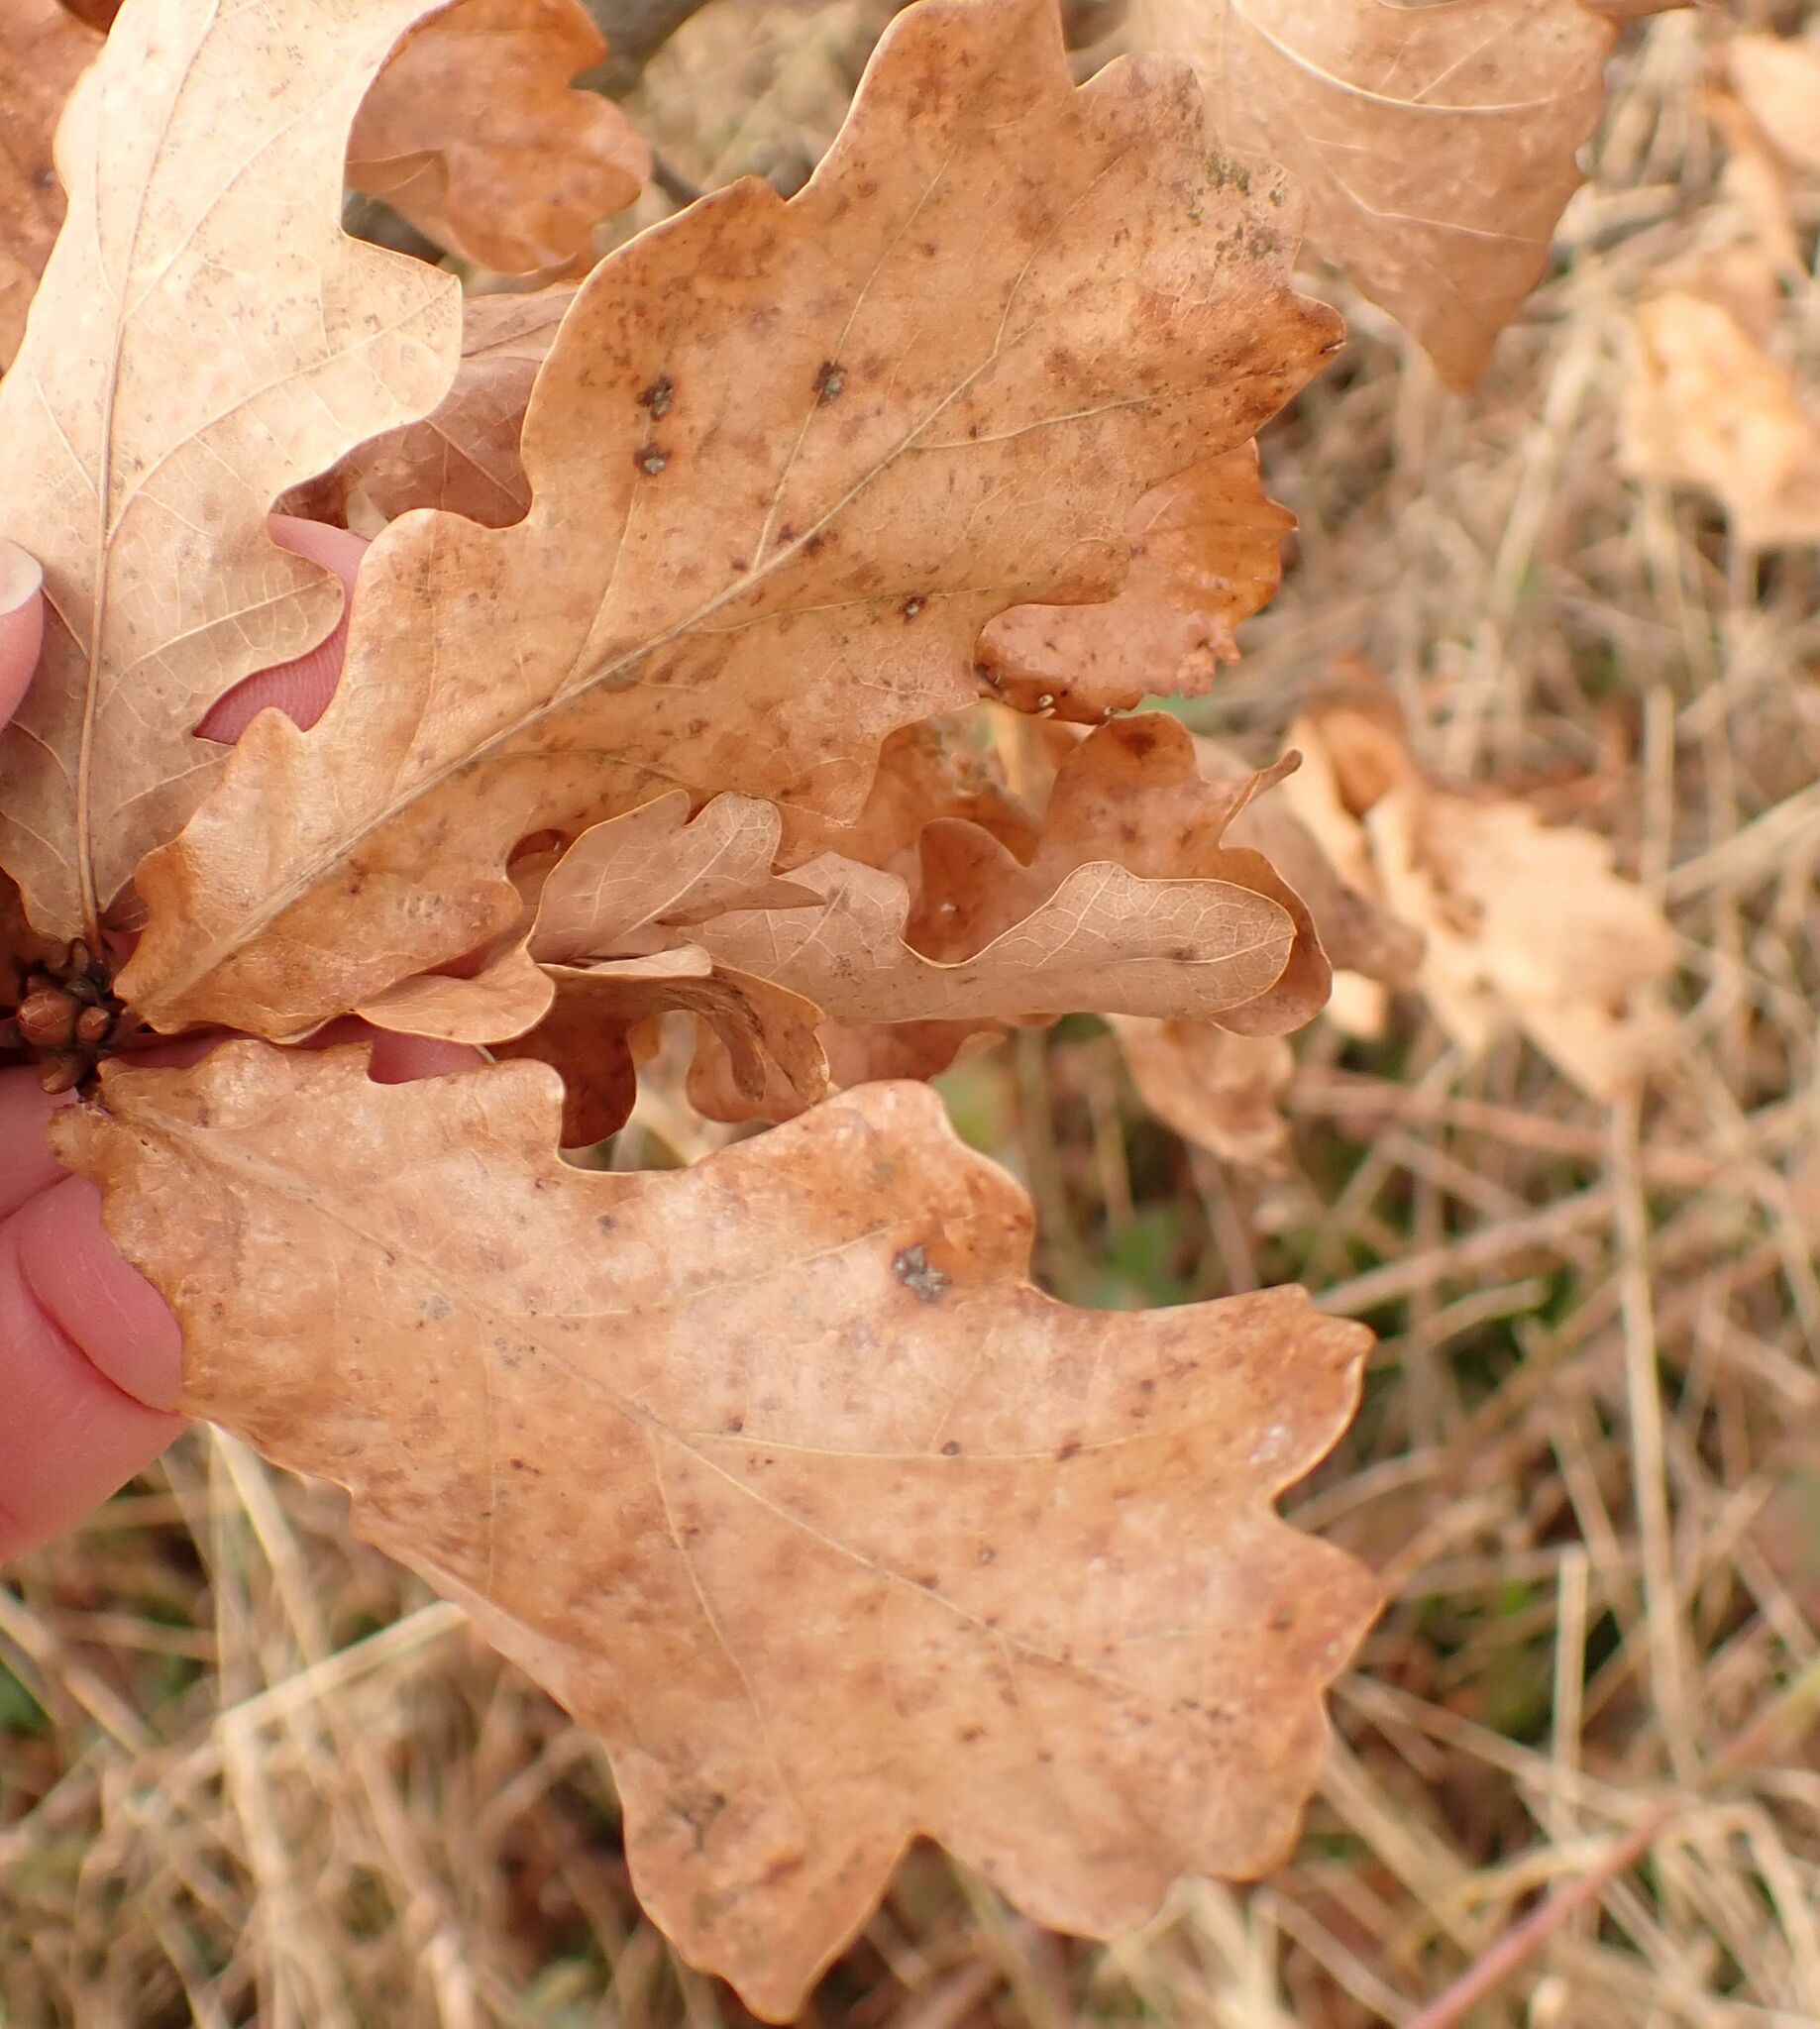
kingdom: Plantae
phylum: Tracheophyta
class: Magnoliopsida
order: Fagales
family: Fagaceae
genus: Quercus
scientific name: Quercus robur
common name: Pedunculate oak
